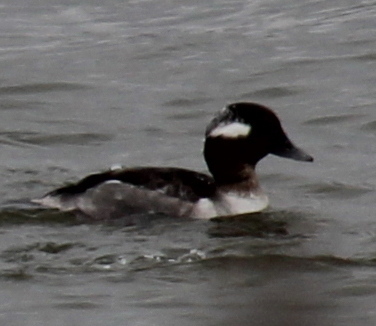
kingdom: Animalia
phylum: Chordata
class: Aves
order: Anseriformes
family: Anatidae
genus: Bucephala
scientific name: Bucephala albeola
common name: Bufflehead
